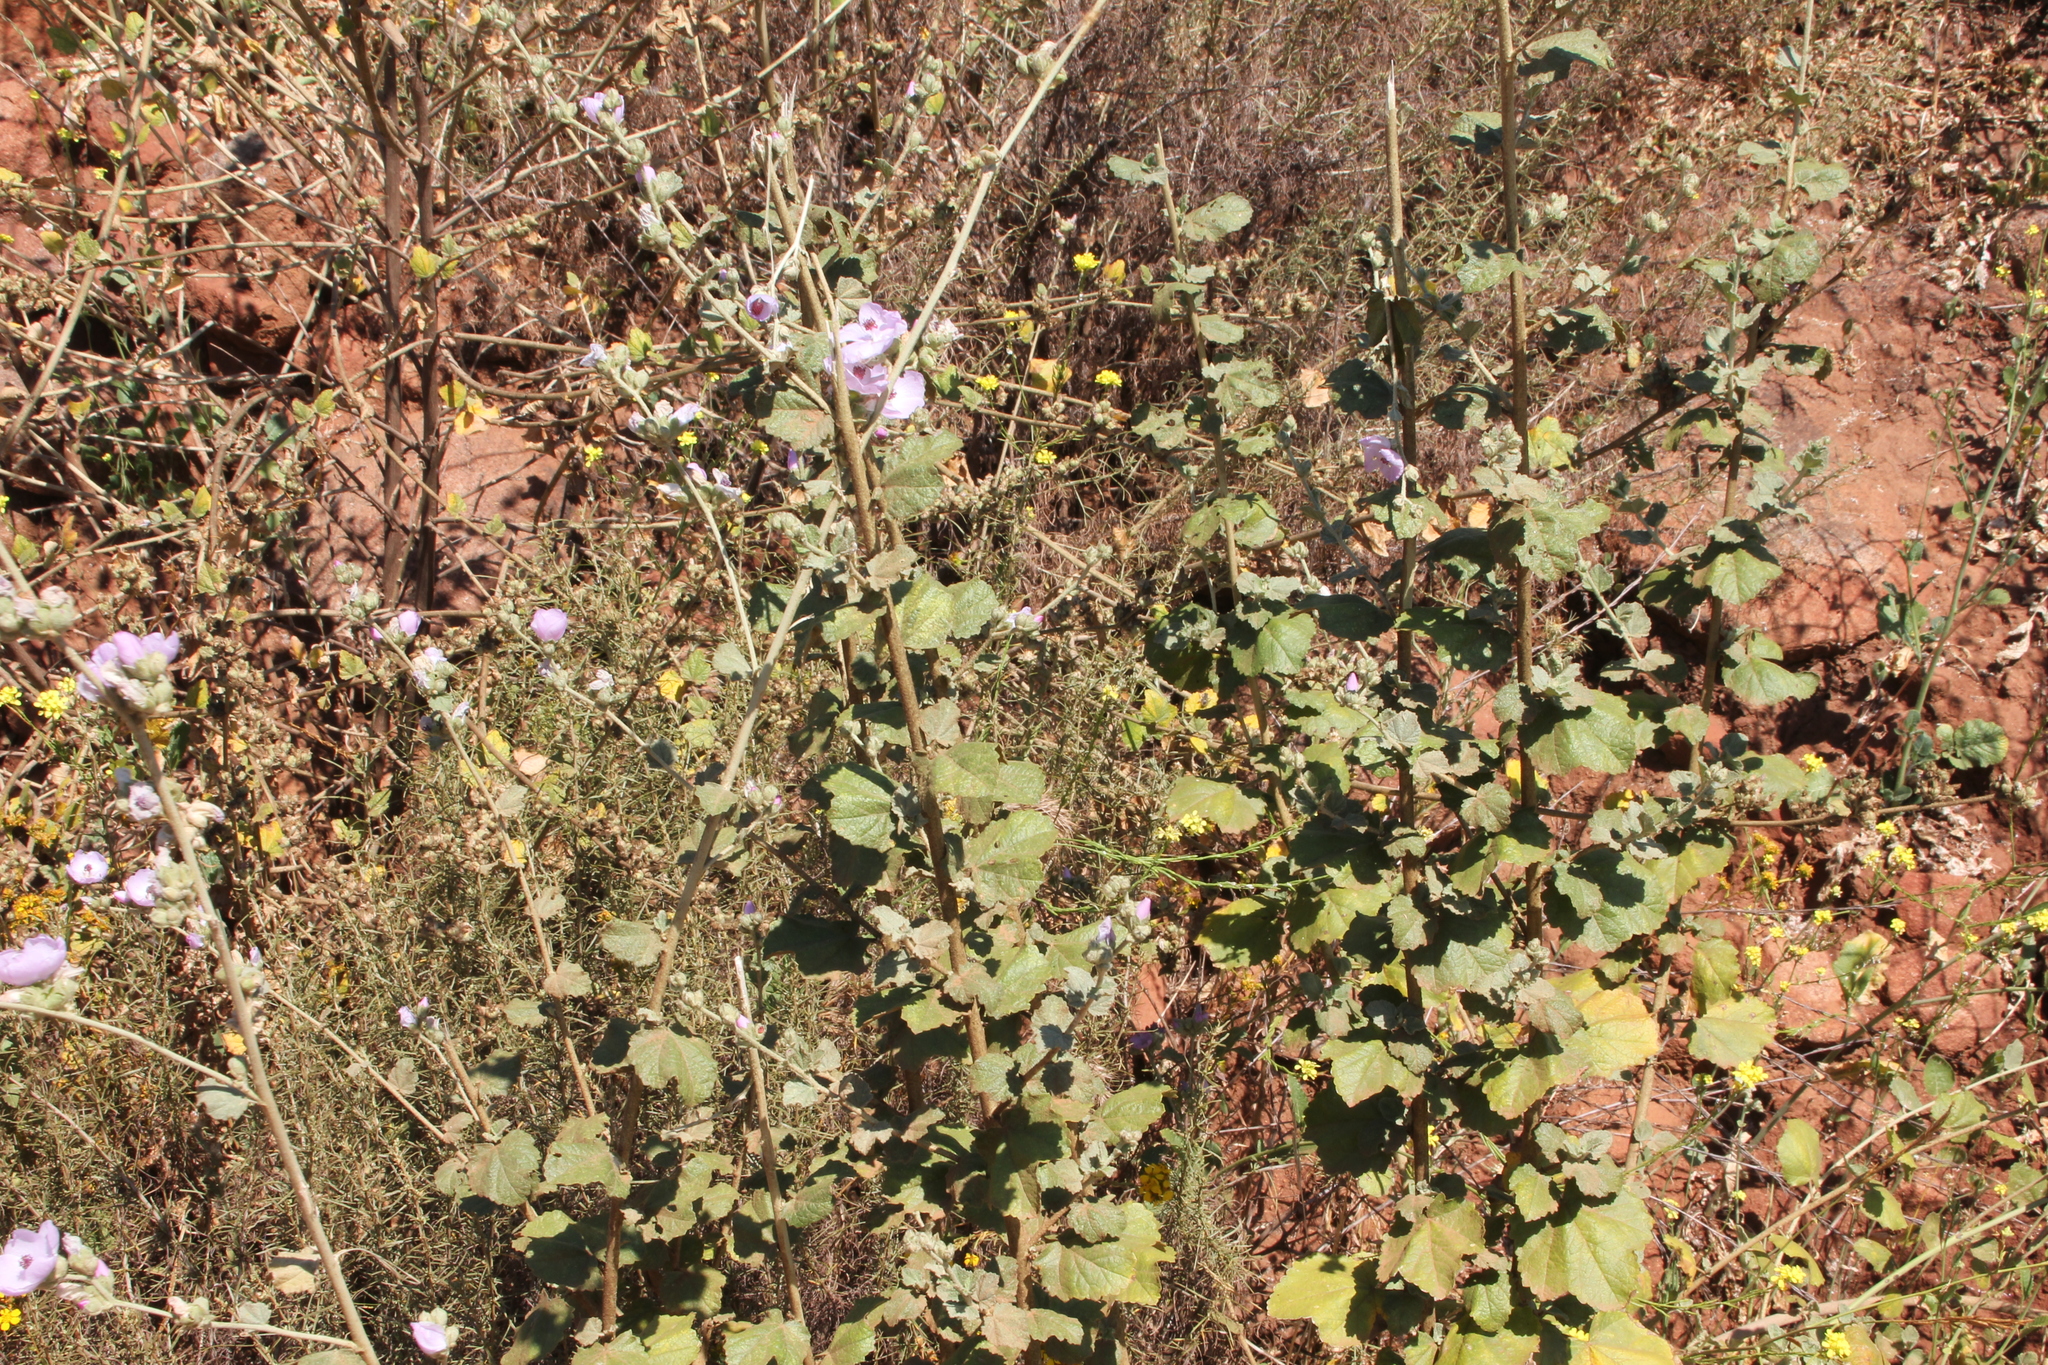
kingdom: Plantae
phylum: Tracheophyta
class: Magnoliopsida
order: Malvales
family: Malvaceae
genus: Malacothamnus
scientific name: Malacothamnus fasciculatus
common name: Sant cruz island bush-mallow
